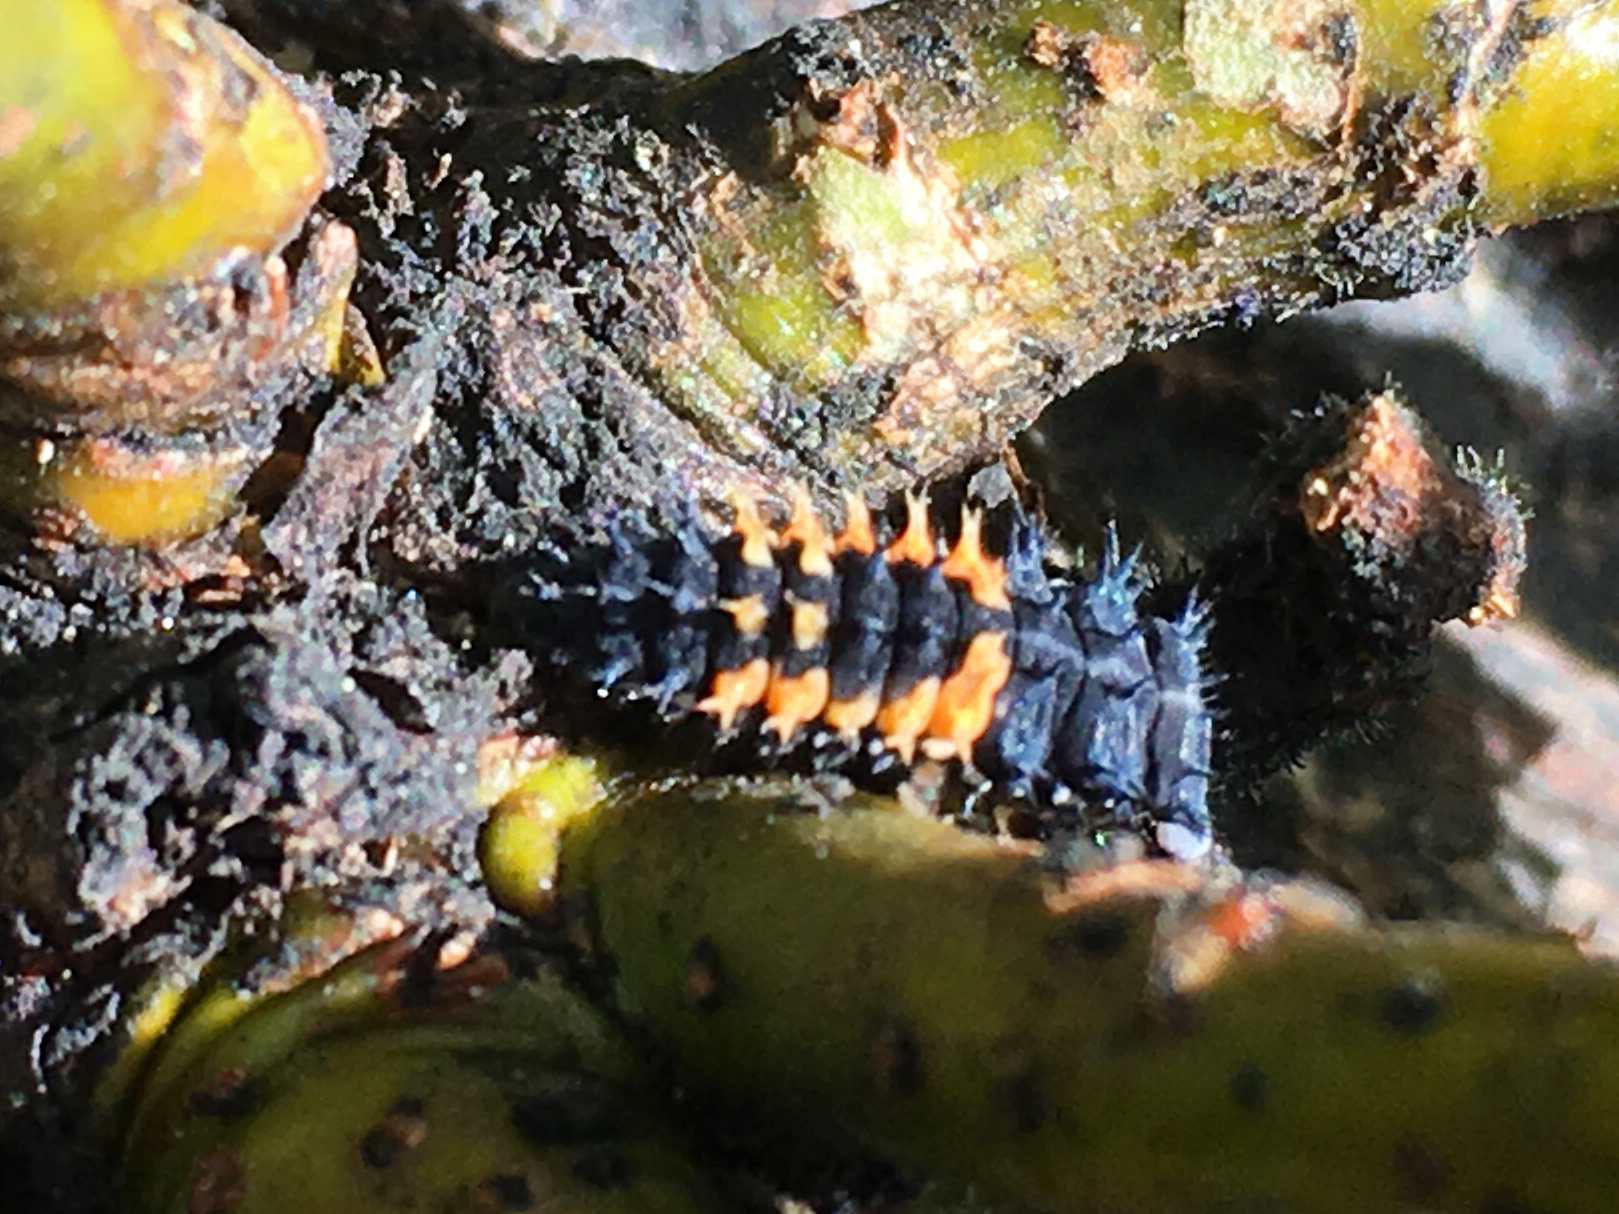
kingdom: Animalia
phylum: Arthropoda
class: Insecta
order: Coleoptera
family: Coccinellidae
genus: Harmonia
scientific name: Harmonia axyridis
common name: Harlequin ladybird
